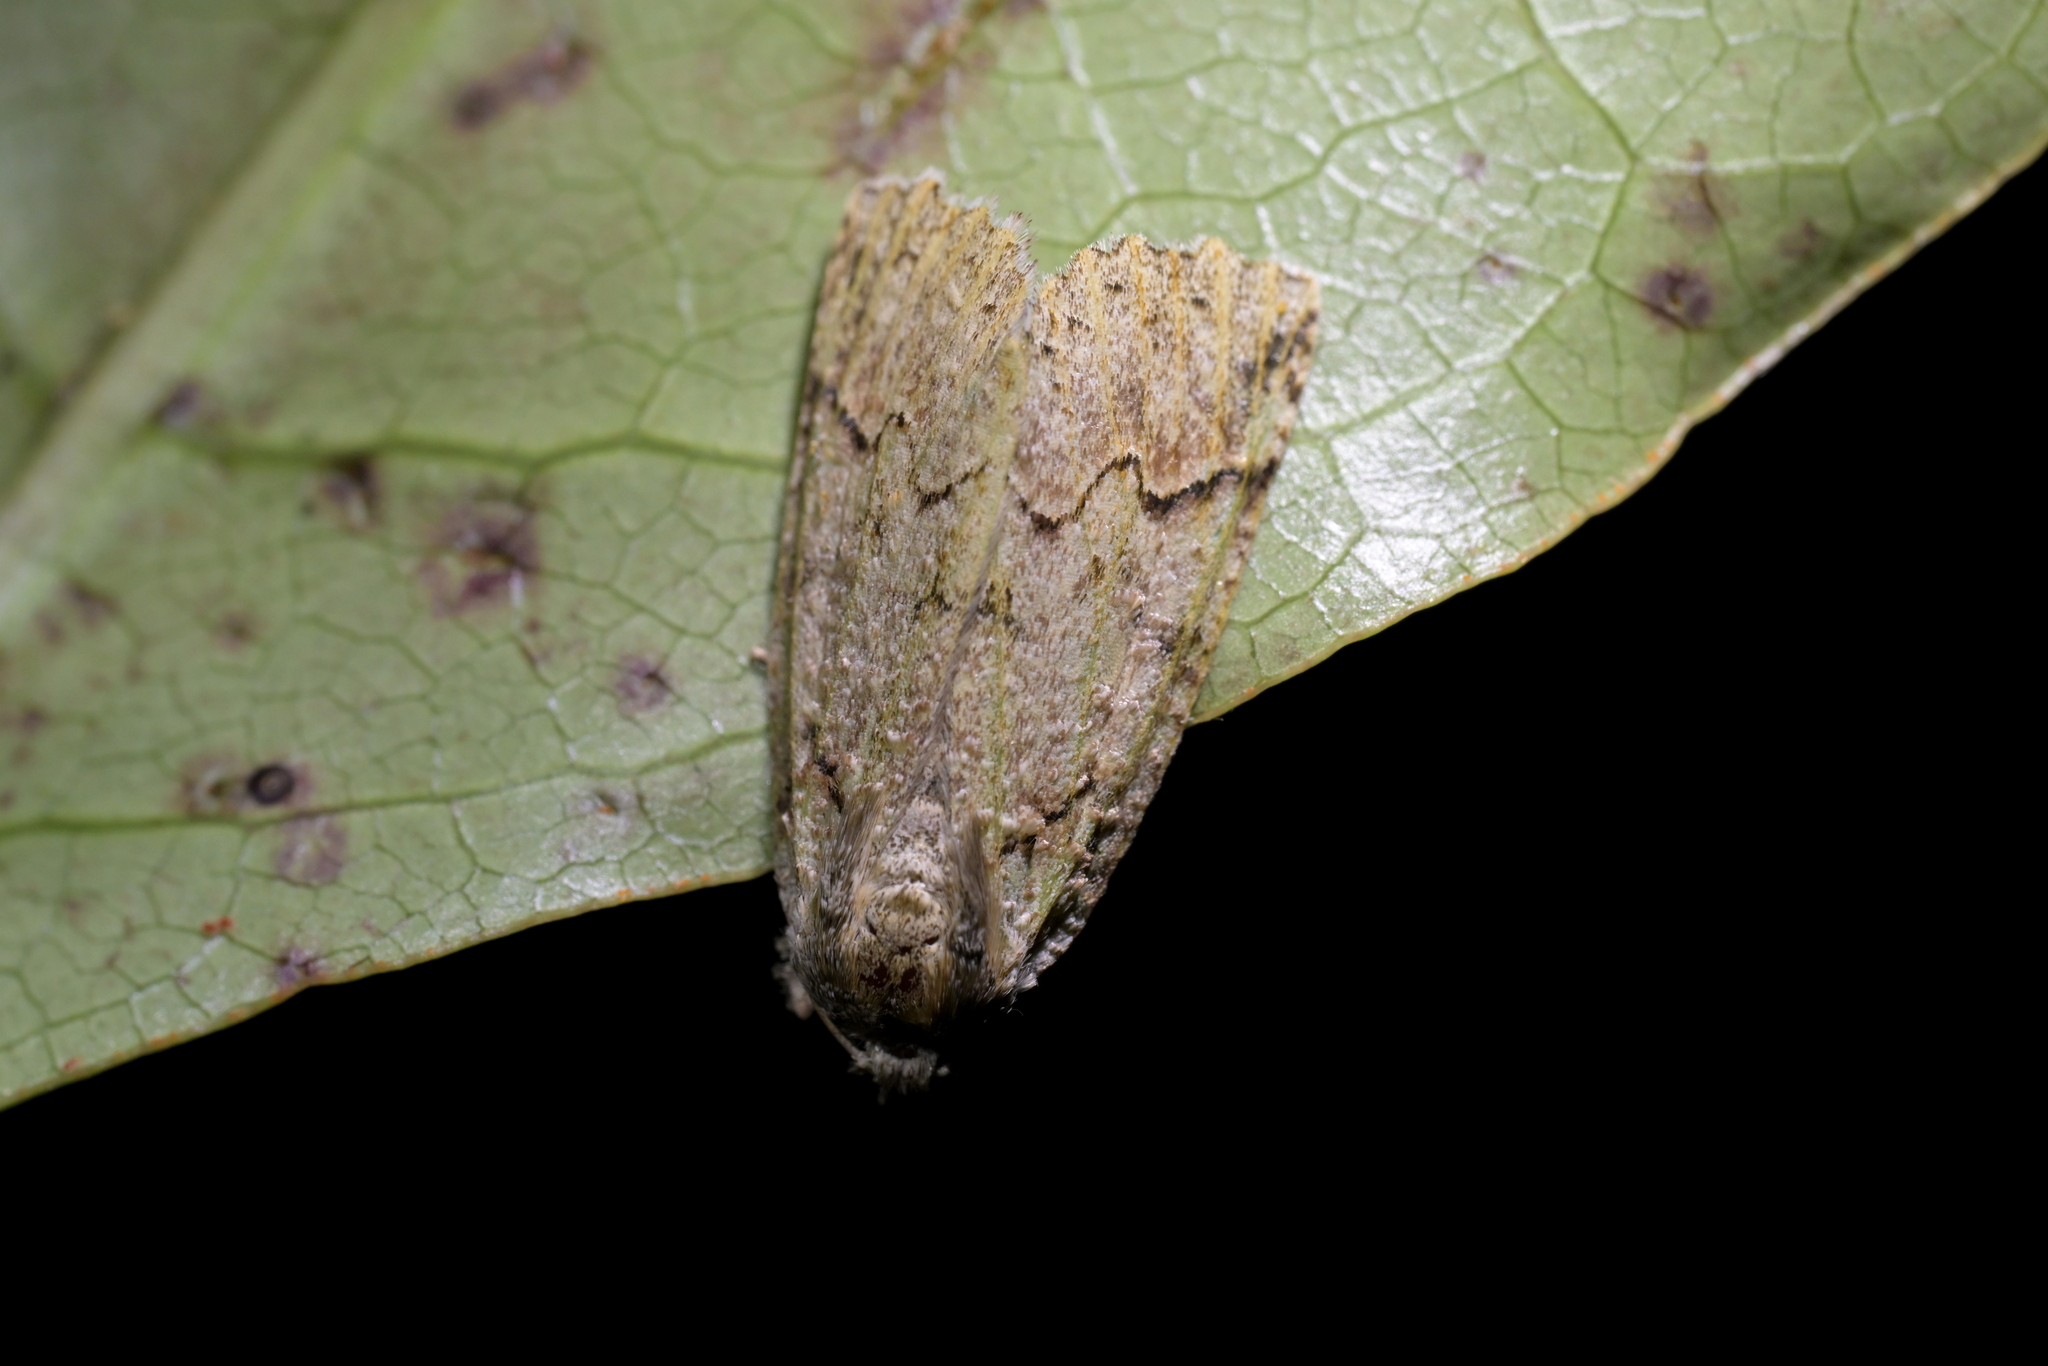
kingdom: Animalia
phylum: Arthropoda
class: Insecta
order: Lepidoptera
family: Geometridae
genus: Declana
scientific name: Declana floccosa
